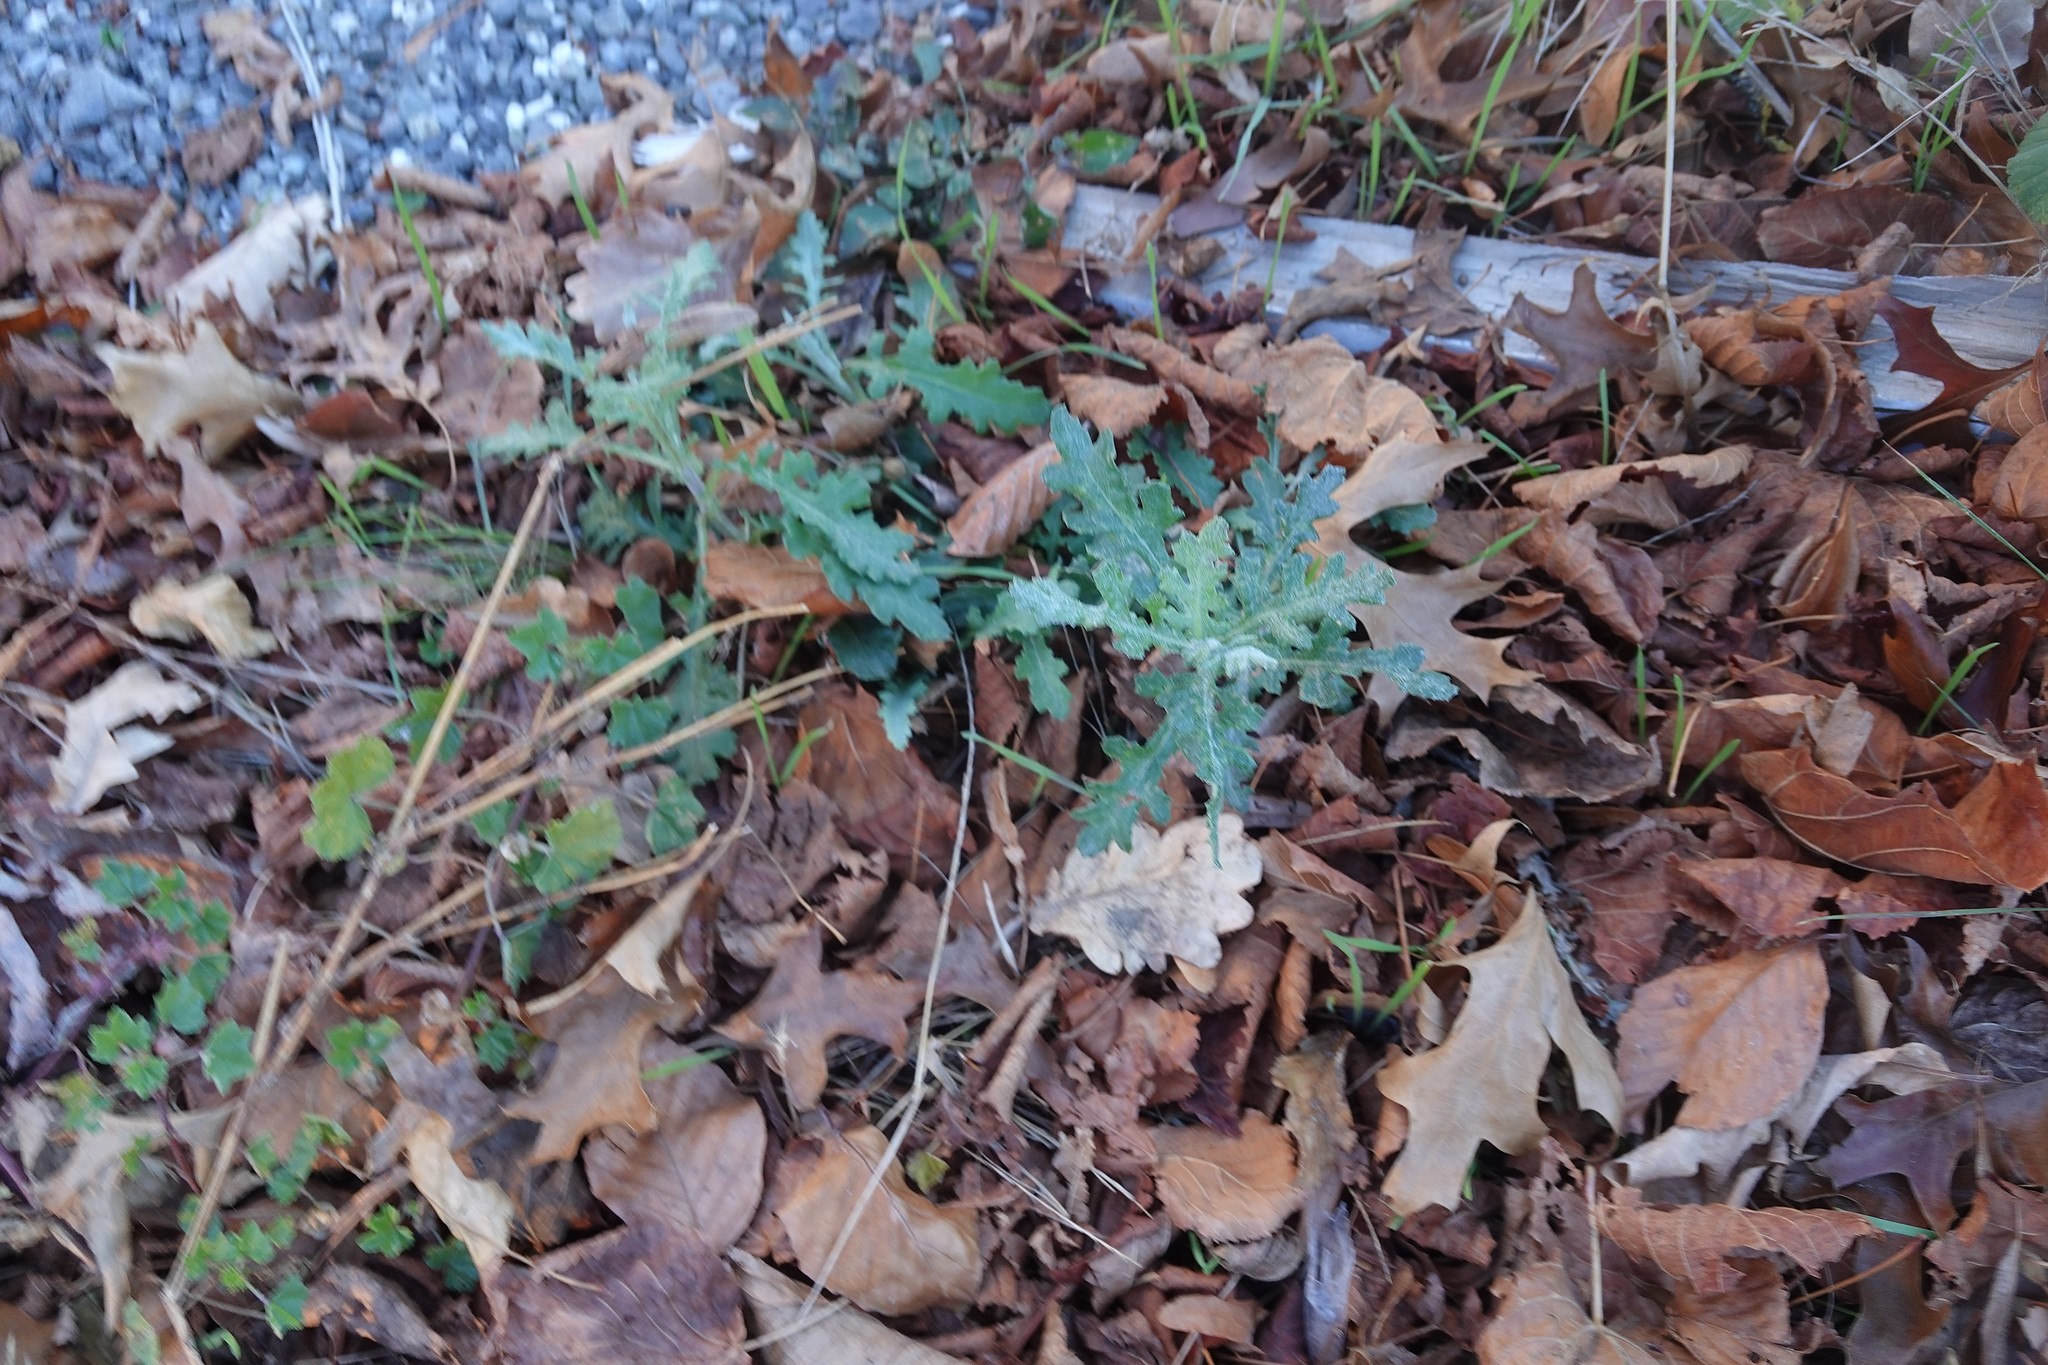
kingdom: Plantae
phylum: Tracheophyta
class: Magnoliopsida
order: Asterales
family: Asteraceae
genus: Senecio
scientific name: Senecio glomeratus
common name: Cutleaf burnweed
